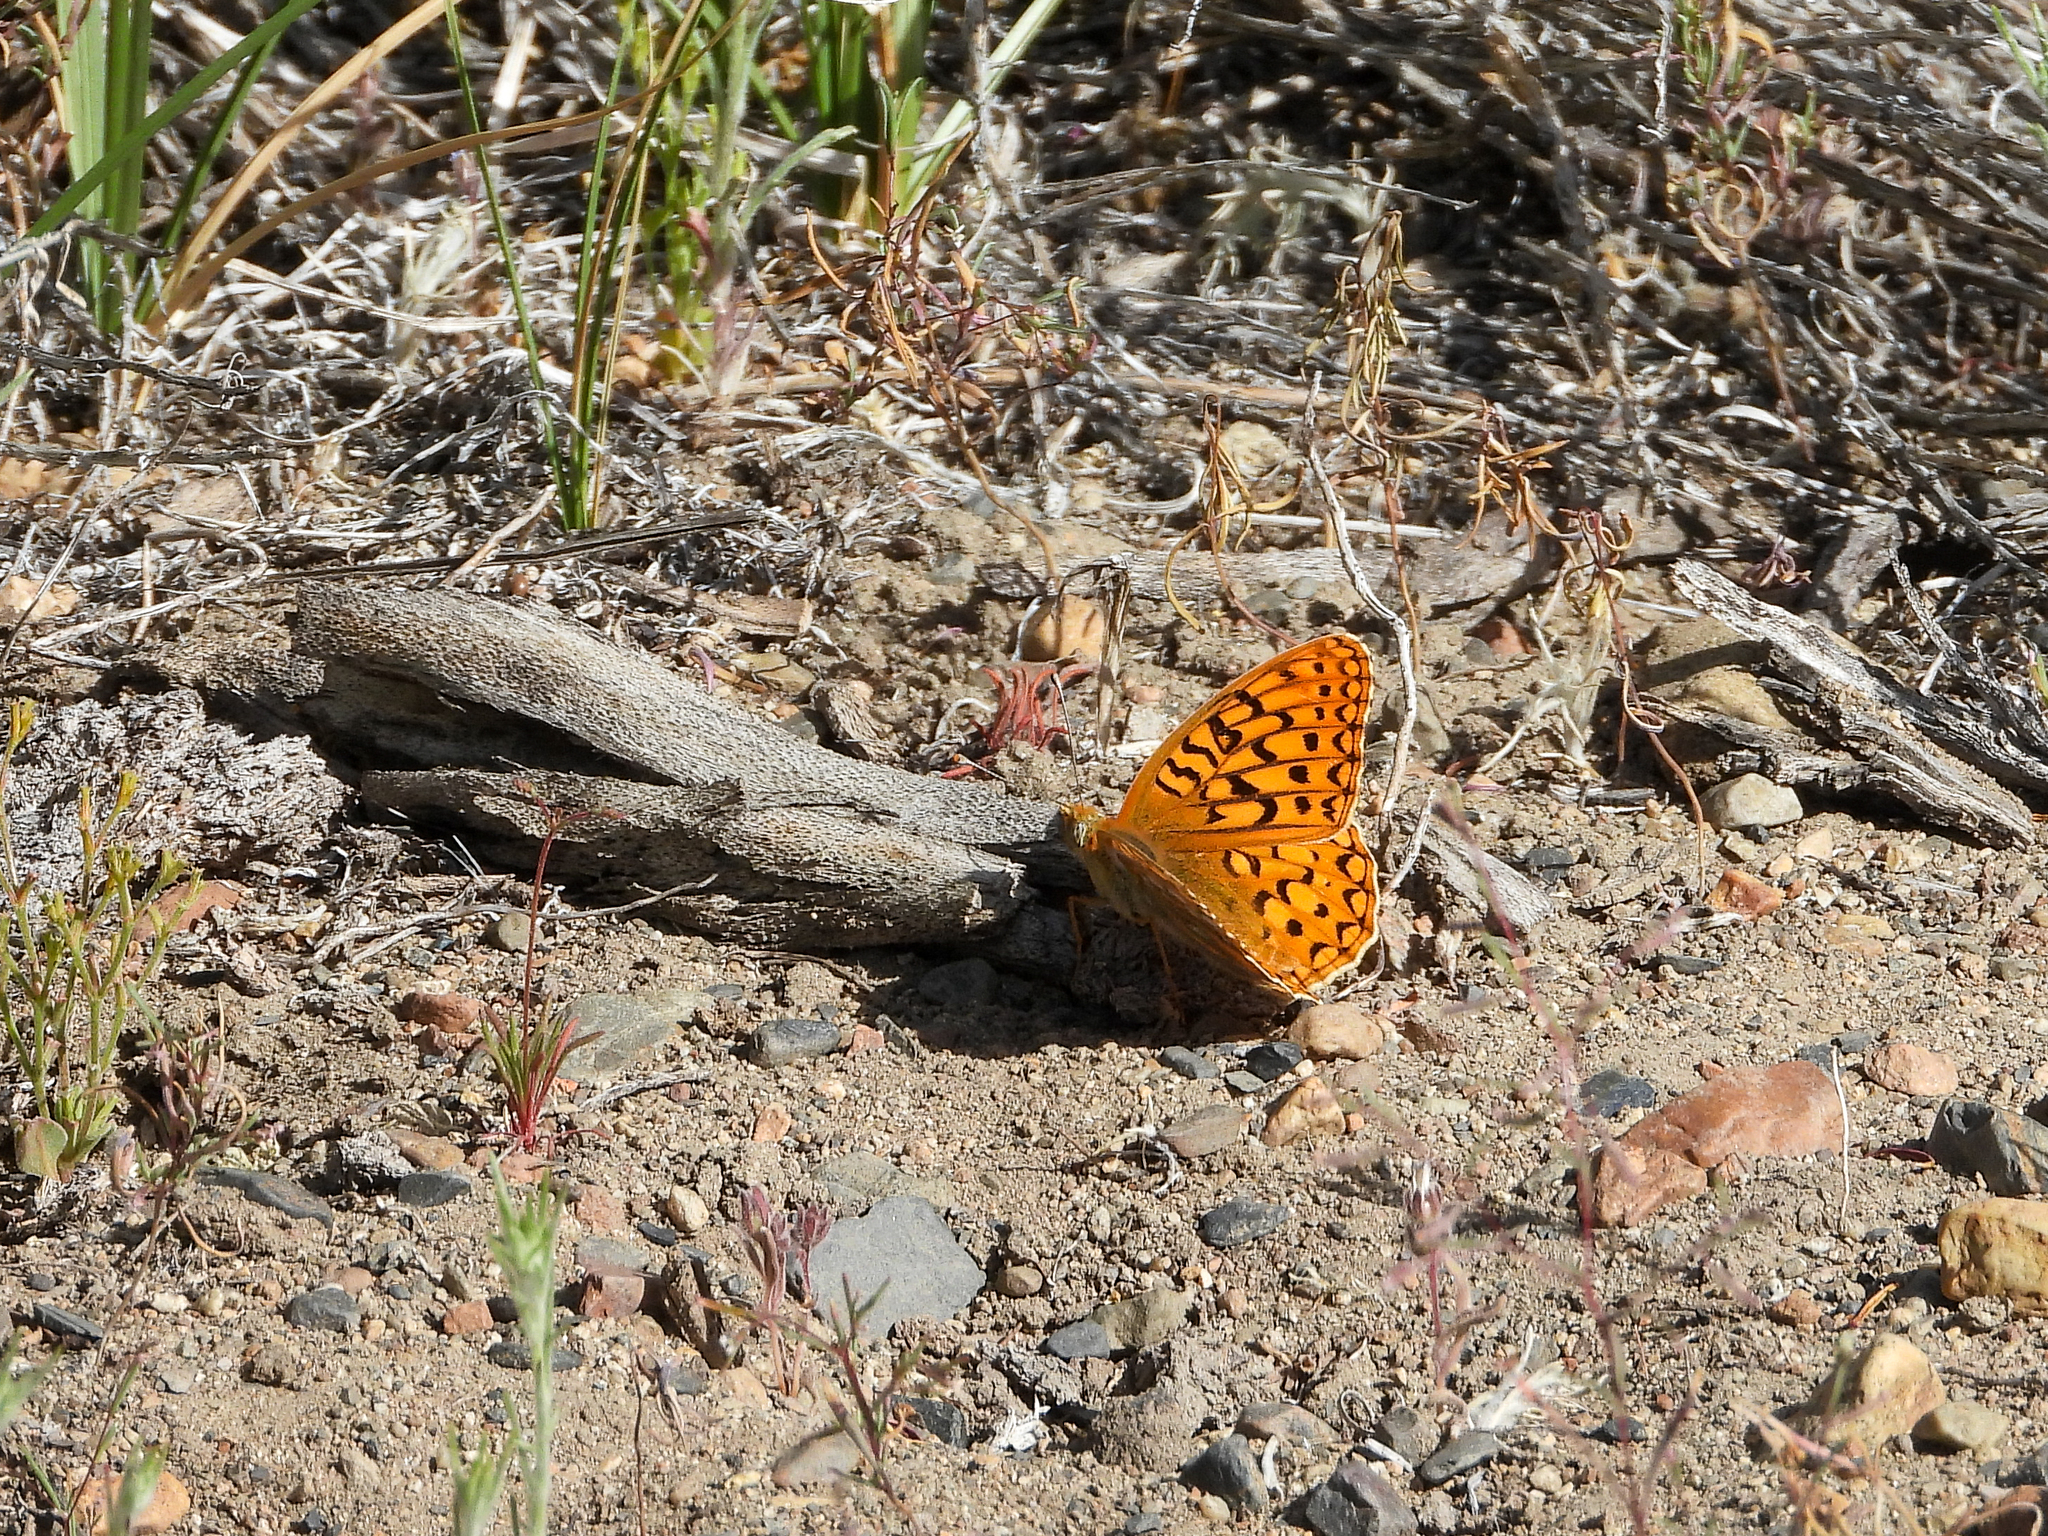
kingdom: Animalia
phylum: Arthropoda
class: Insecta
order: Lepidoptera
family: Nymphalidae
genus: Speyeria
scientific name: Speyeria callippe
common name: Callippe fritillary
